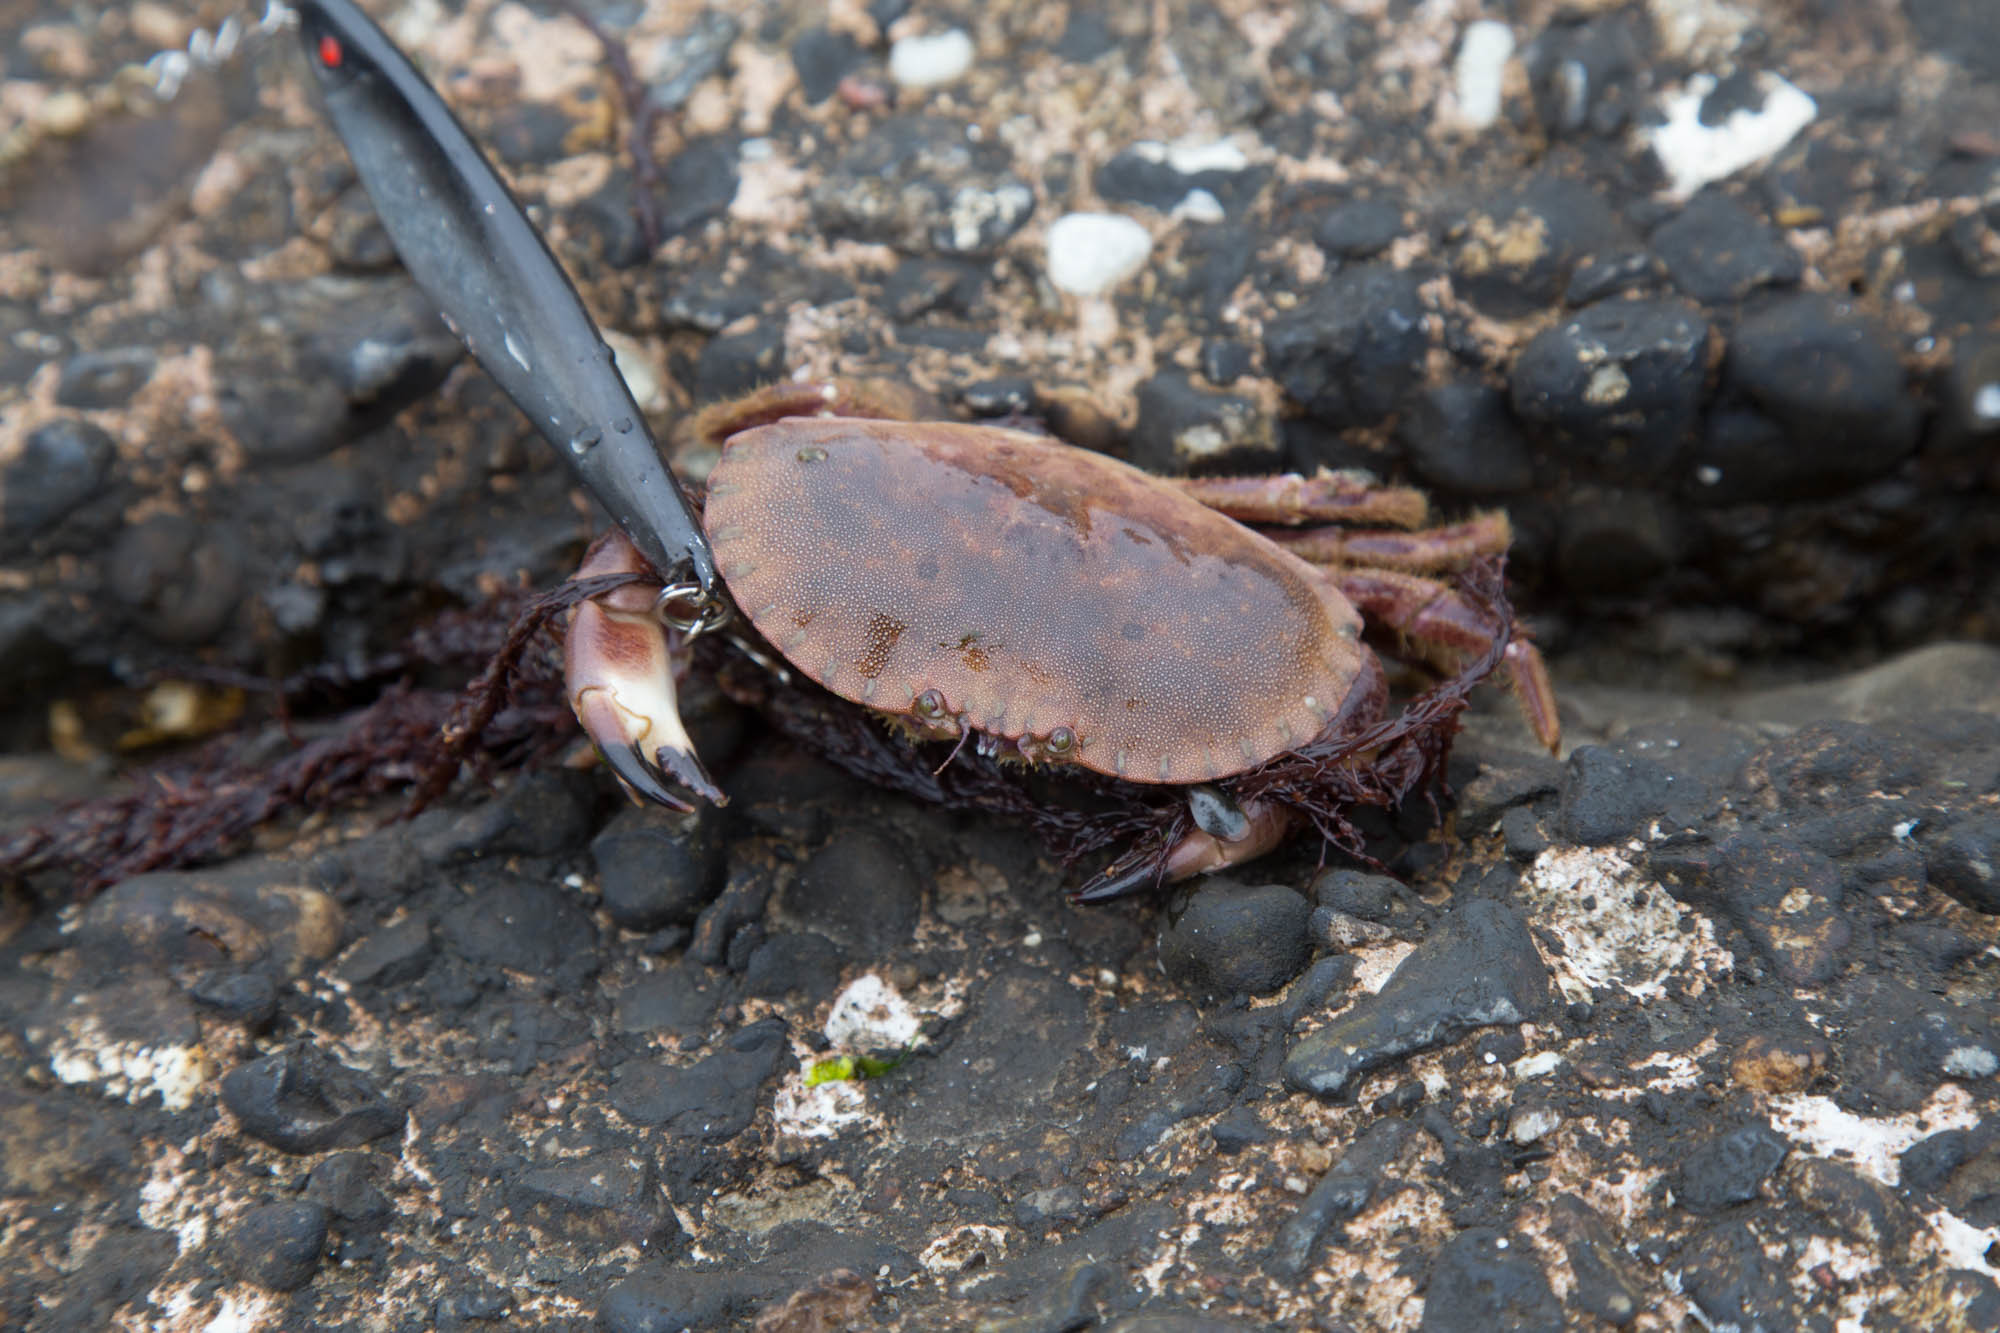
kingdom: Animalia
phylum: Arthropoda
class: Malacostraca
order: Decapoda
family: Cancridae
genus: Cancer
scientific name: Cancer pagurus
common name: Edible crab
